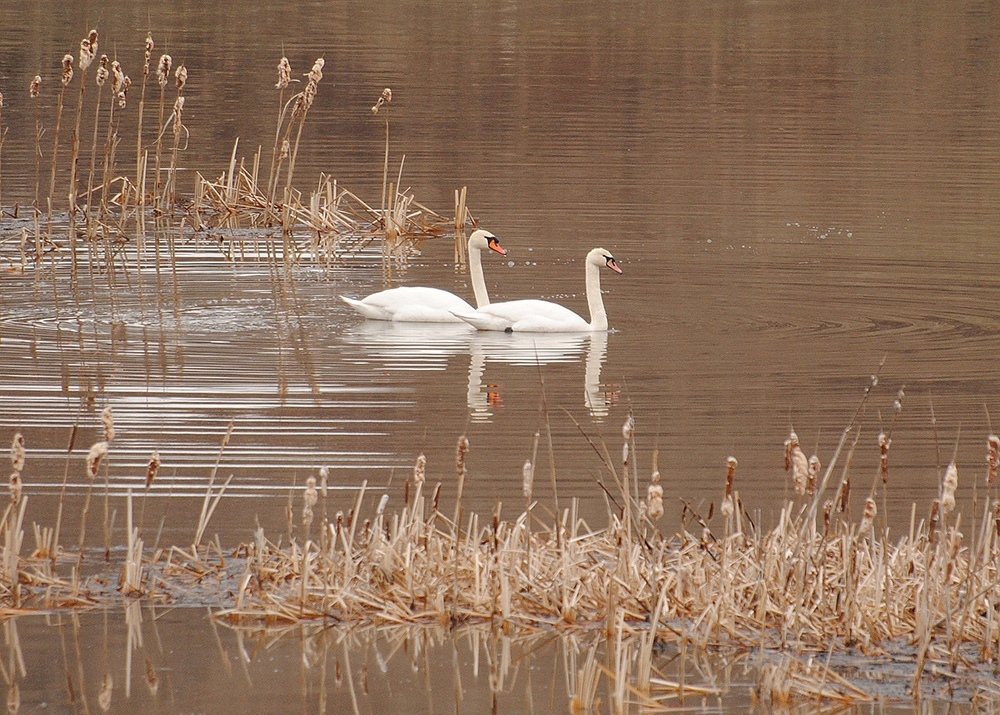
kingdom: Animalia
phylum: Chordata
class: Aves
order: Anseriformes
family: Anatidae
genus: Cygnus
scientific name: Cygnus olor
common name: Mute swan
